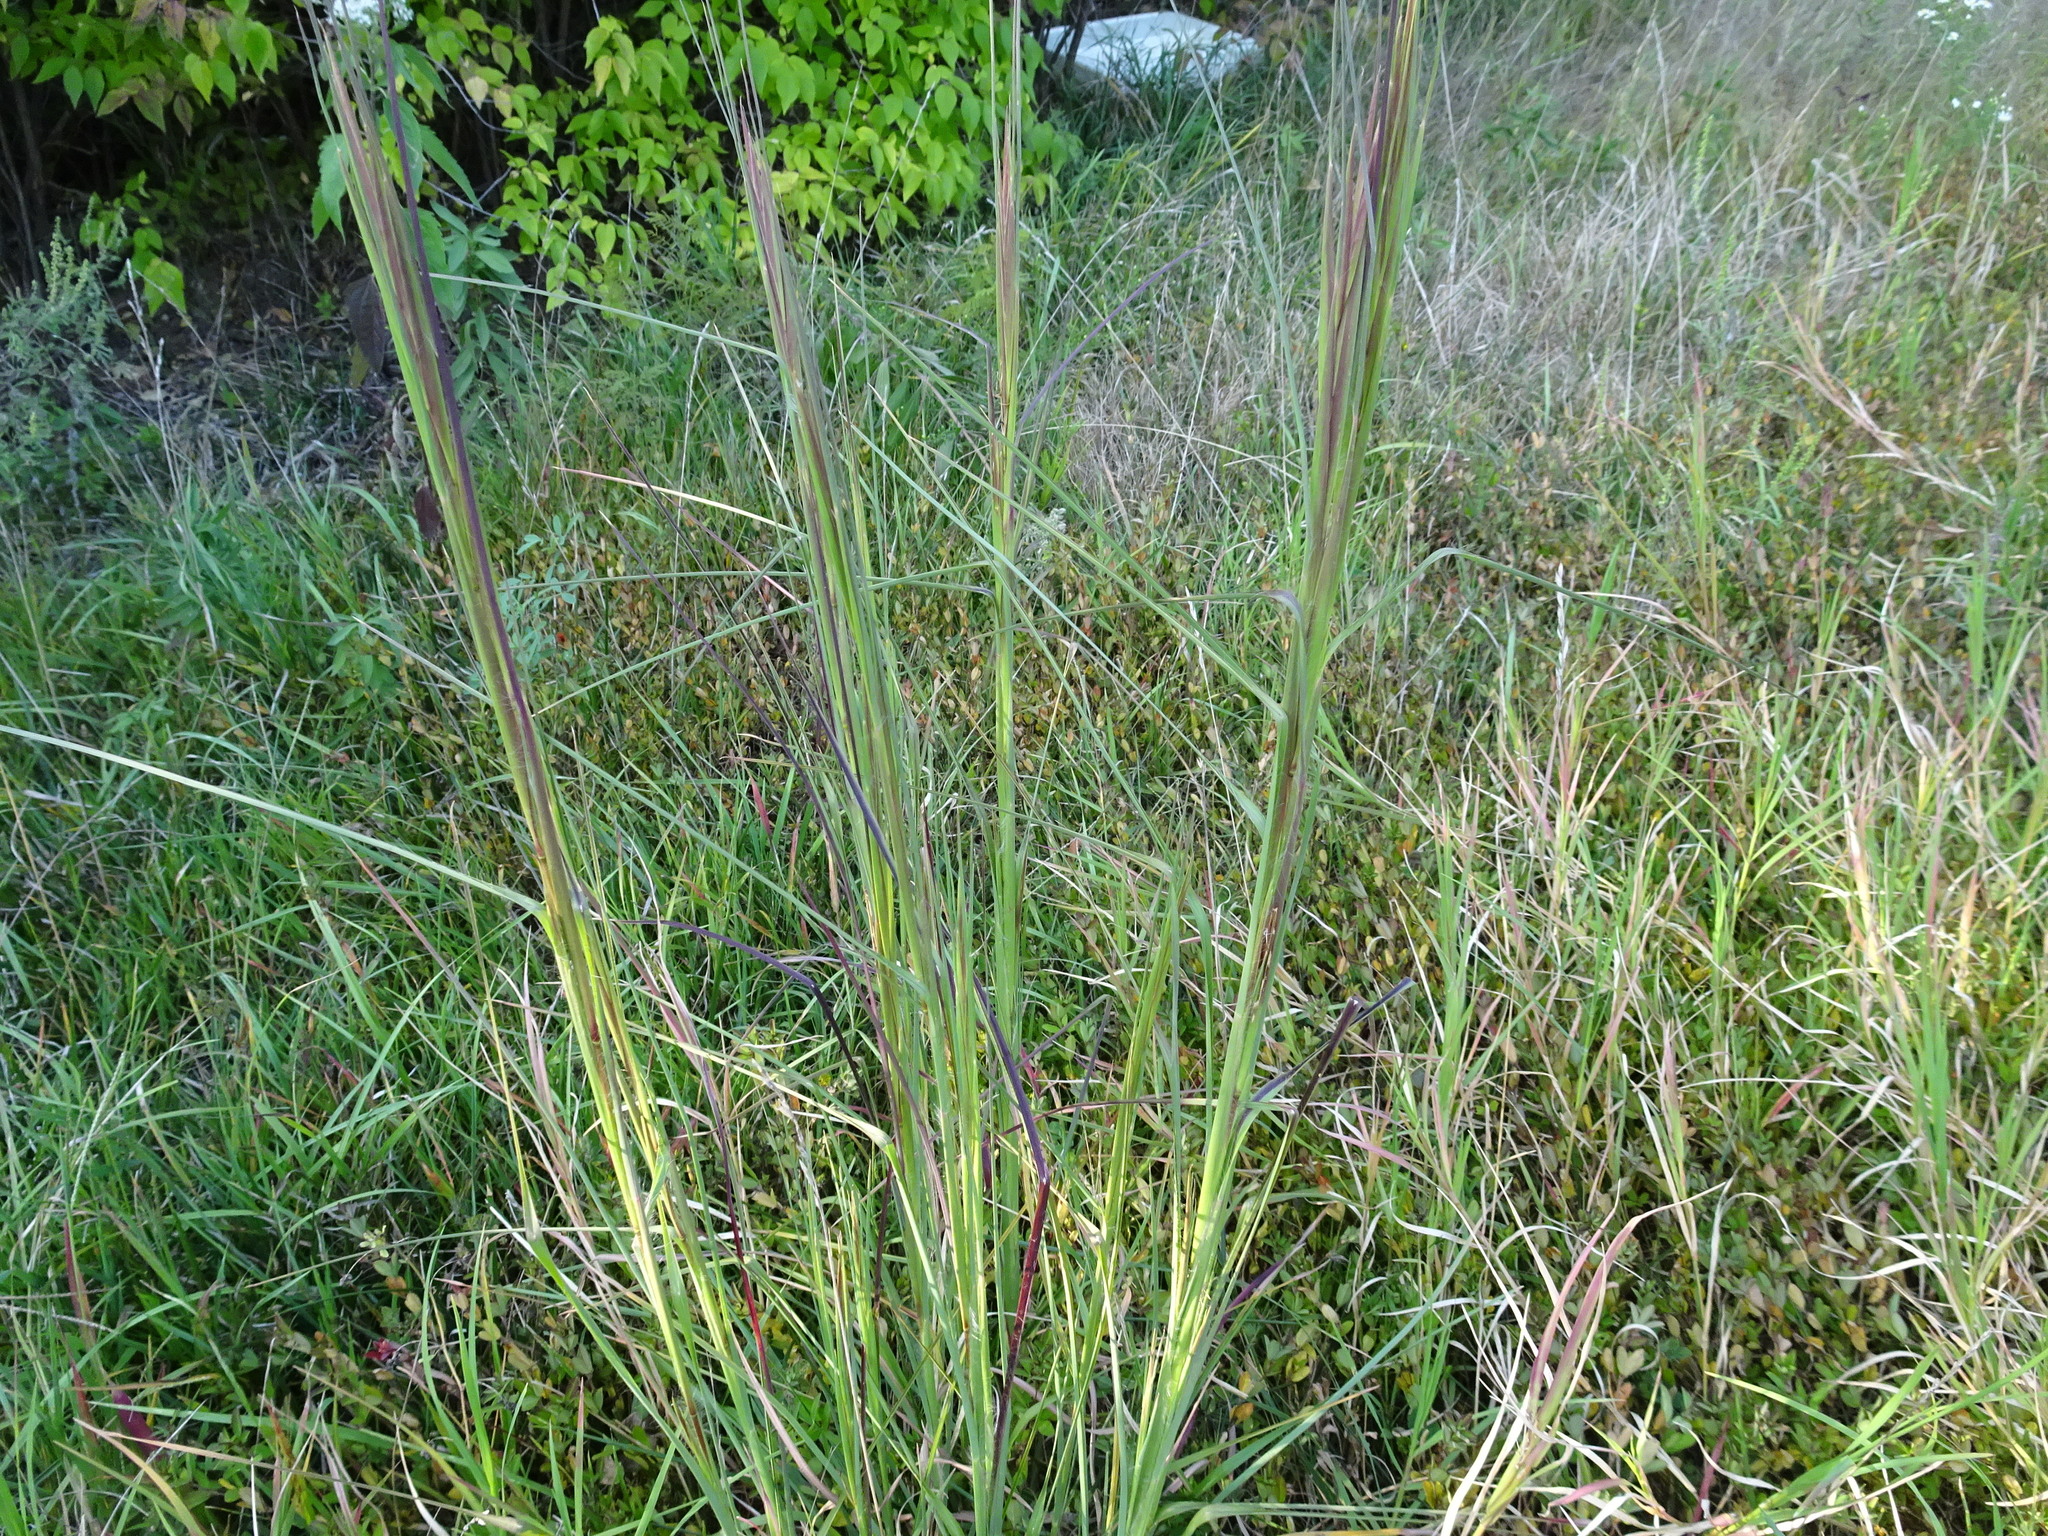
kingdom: Plantae
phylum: Tracheophyta
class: Liliopsida
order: Poales
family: Poaceae
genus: Andropogon
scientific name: Andropogon virginicus
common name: Broomsedge bluestem
